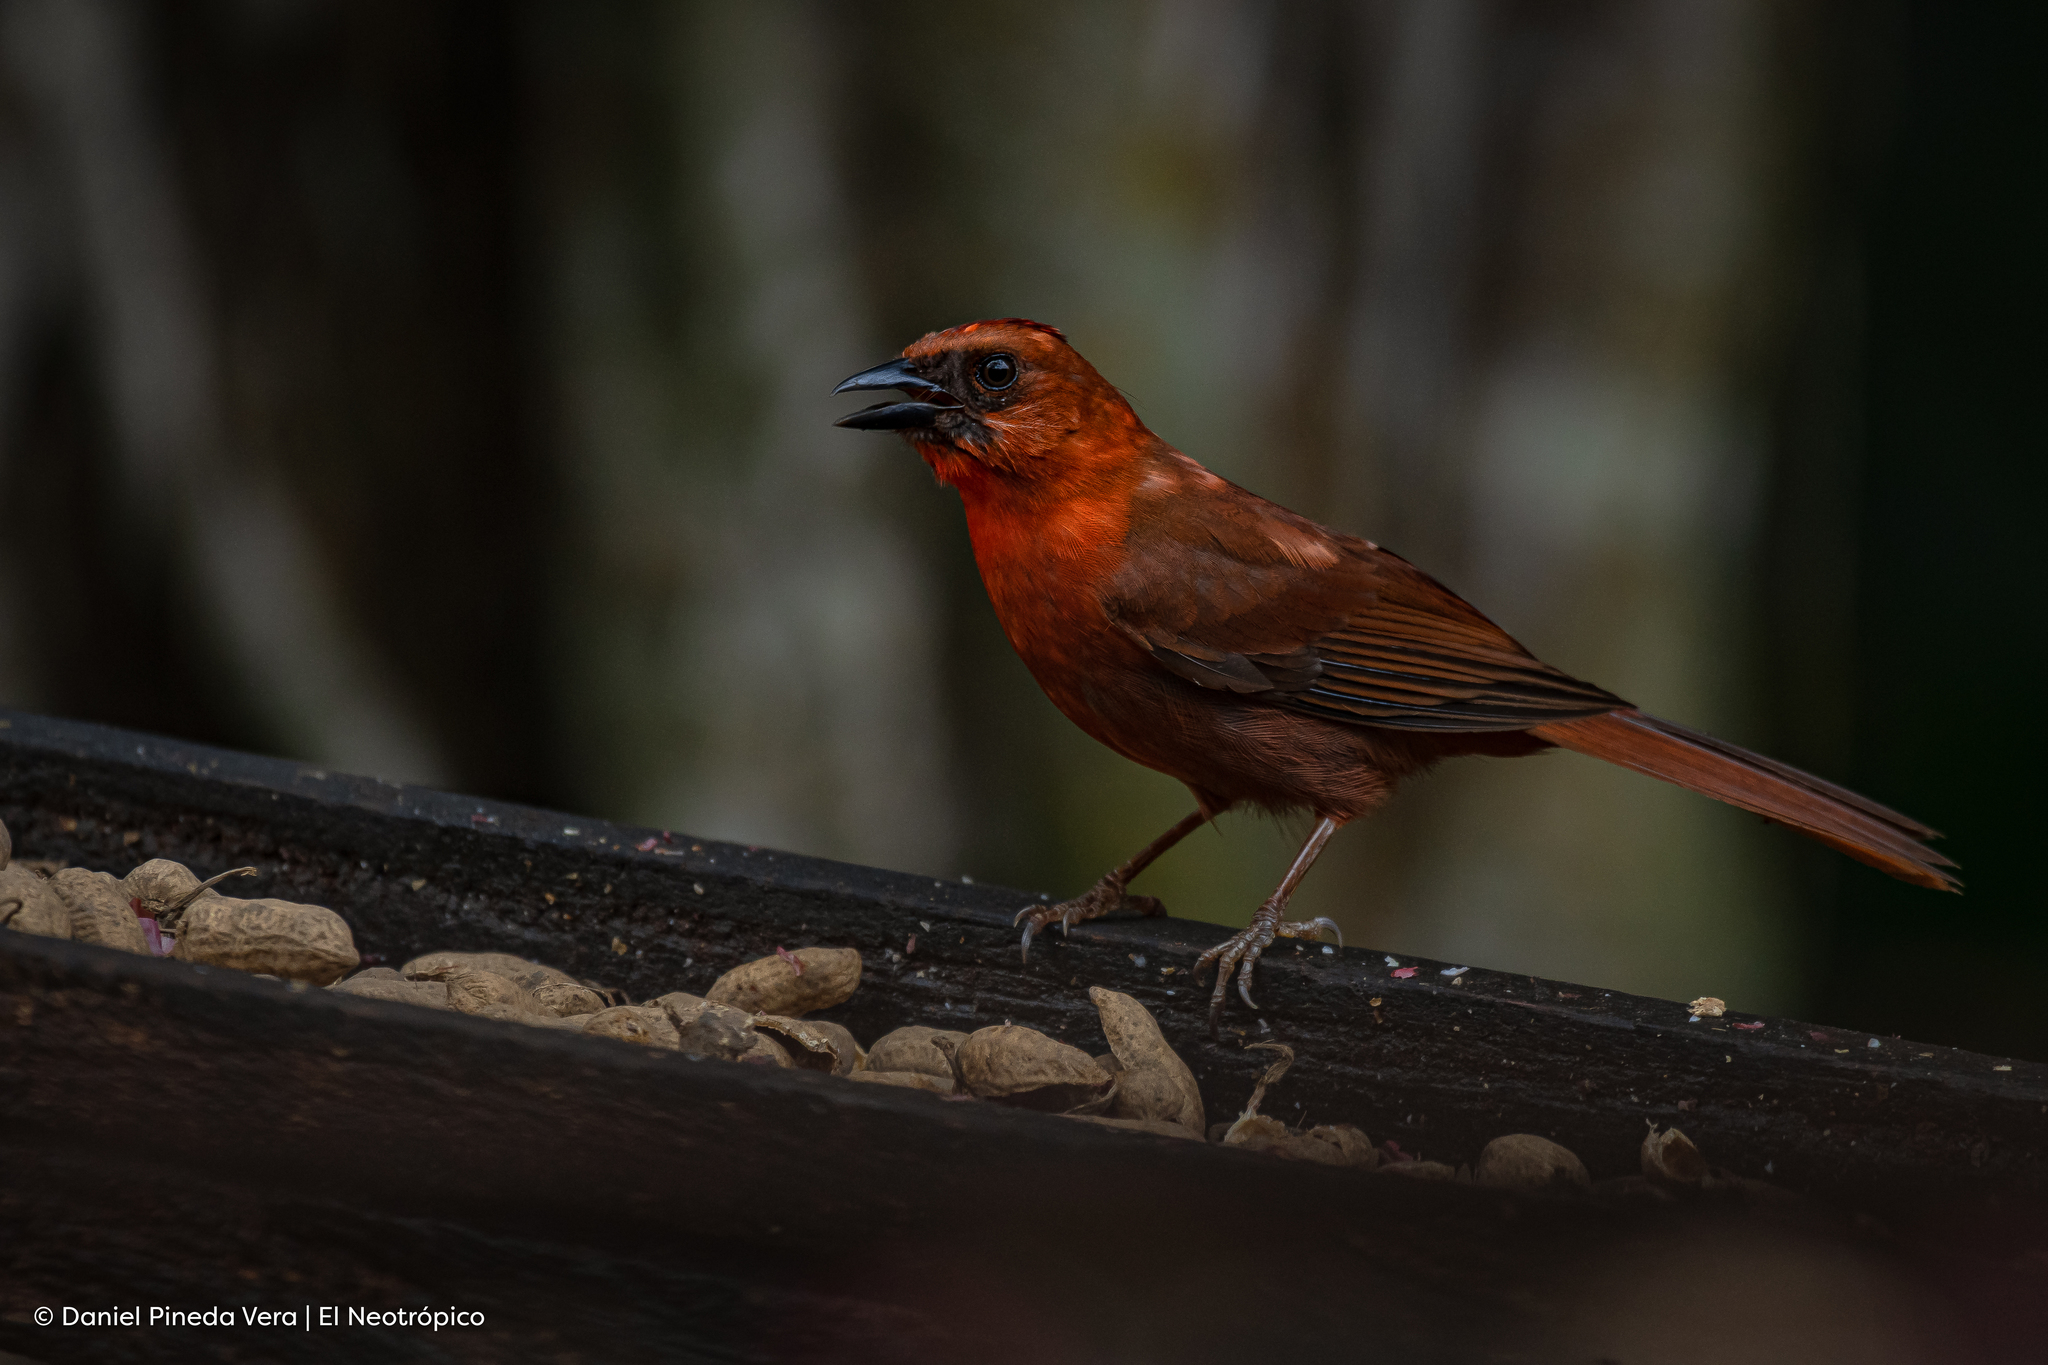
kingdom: Animalia
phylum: Chordata
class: Aves
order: Passeriformes
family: Cardinalidae
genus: Habia
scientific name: Habia fuscicauda
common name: Red-throated ant-tanager
